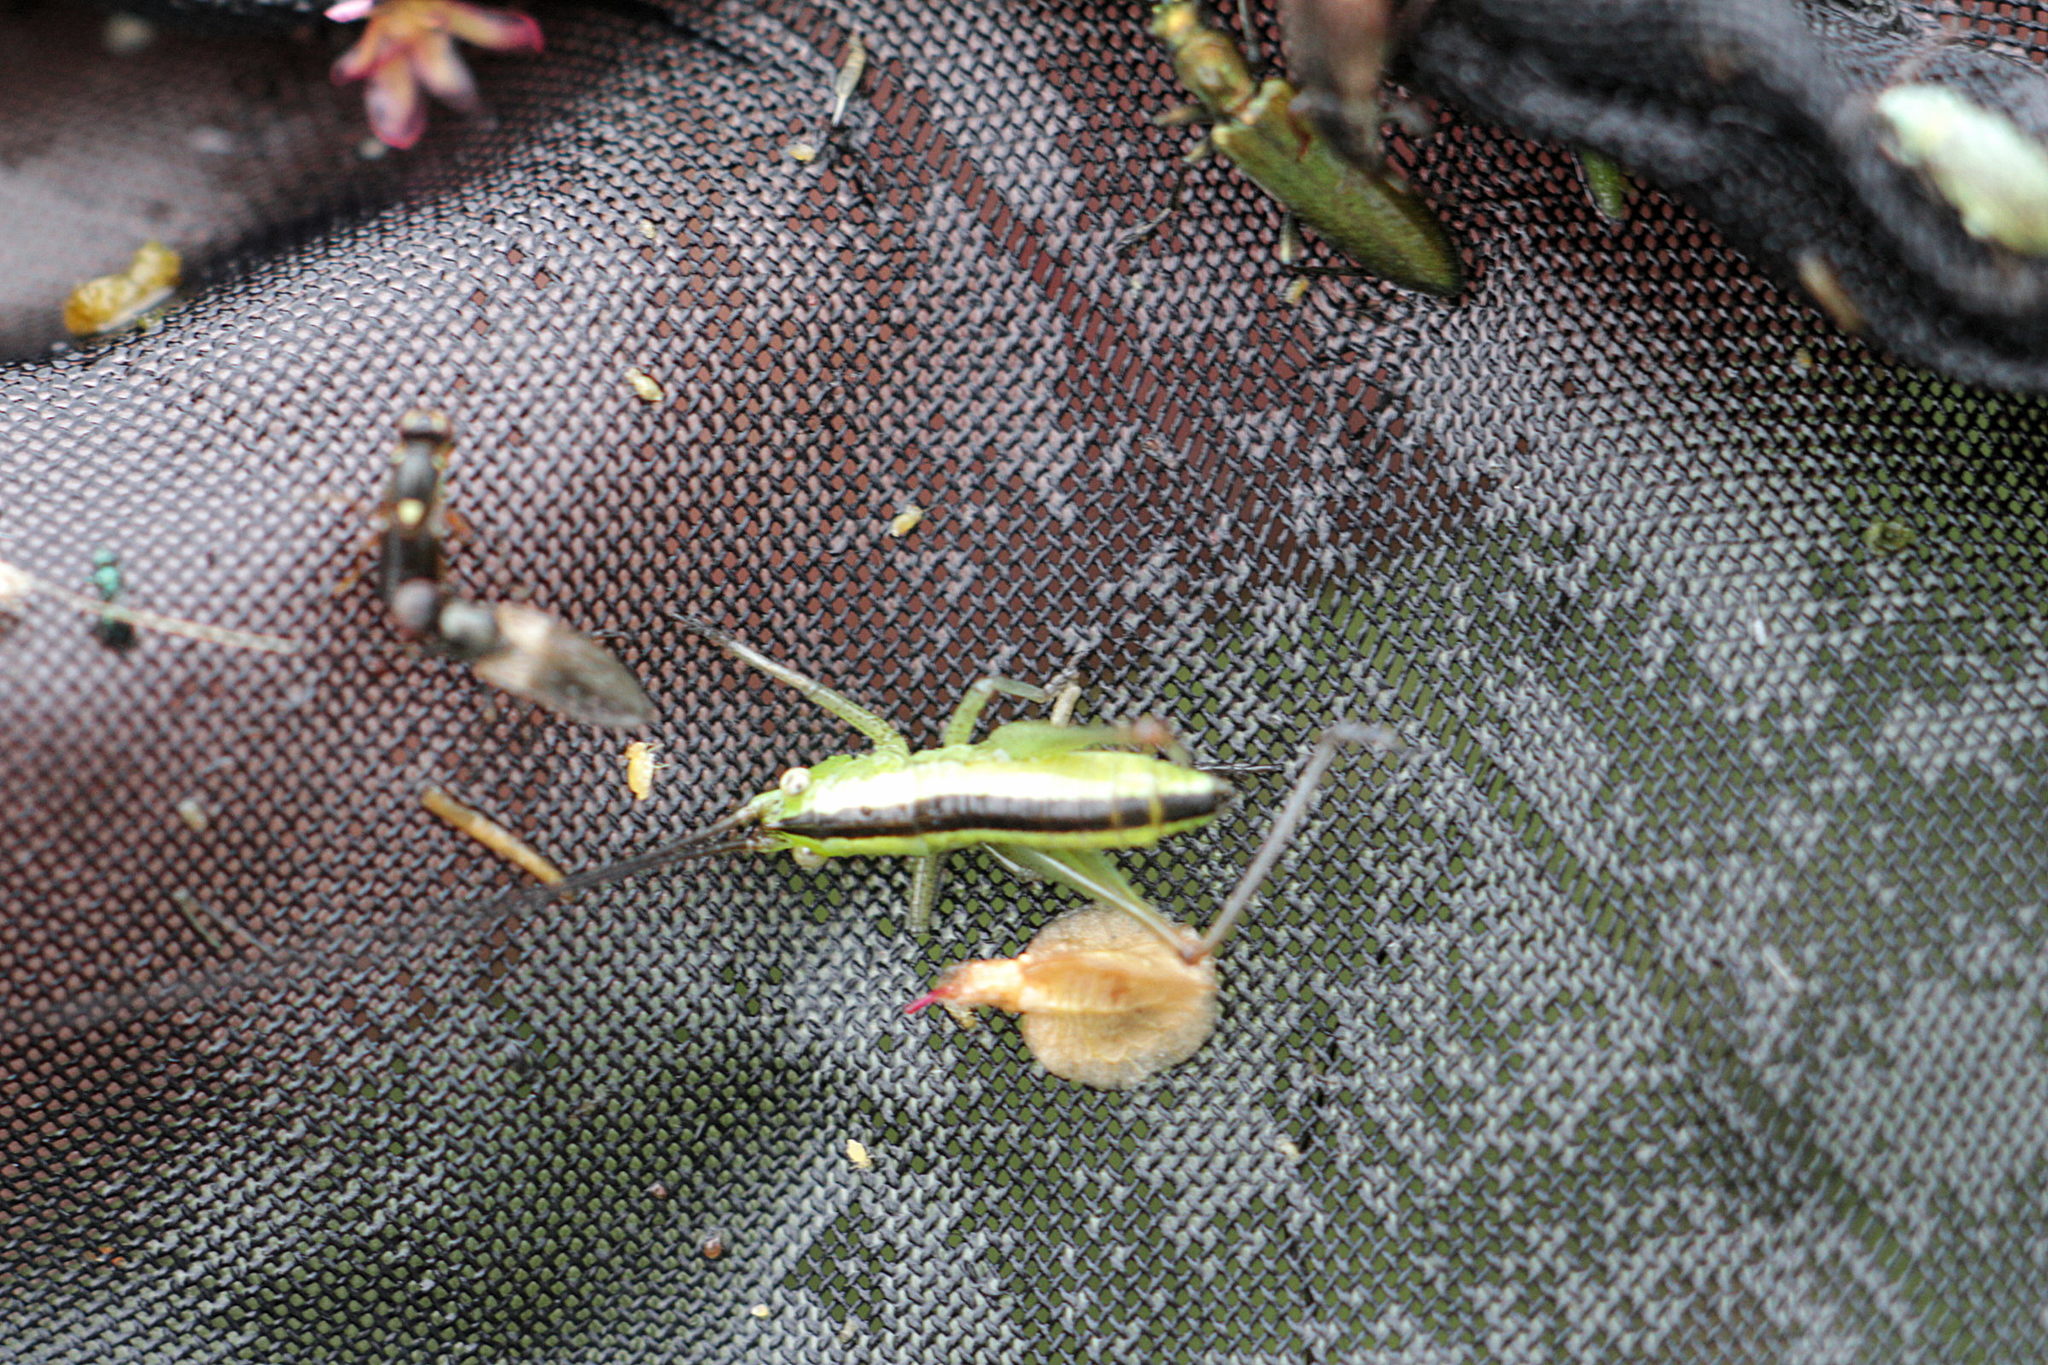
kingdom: Animalia
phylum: Arthropoda
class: Insecta
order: Orthoptera
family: Tettigoniidae
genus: Conocephalus
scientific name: Conocephalus
